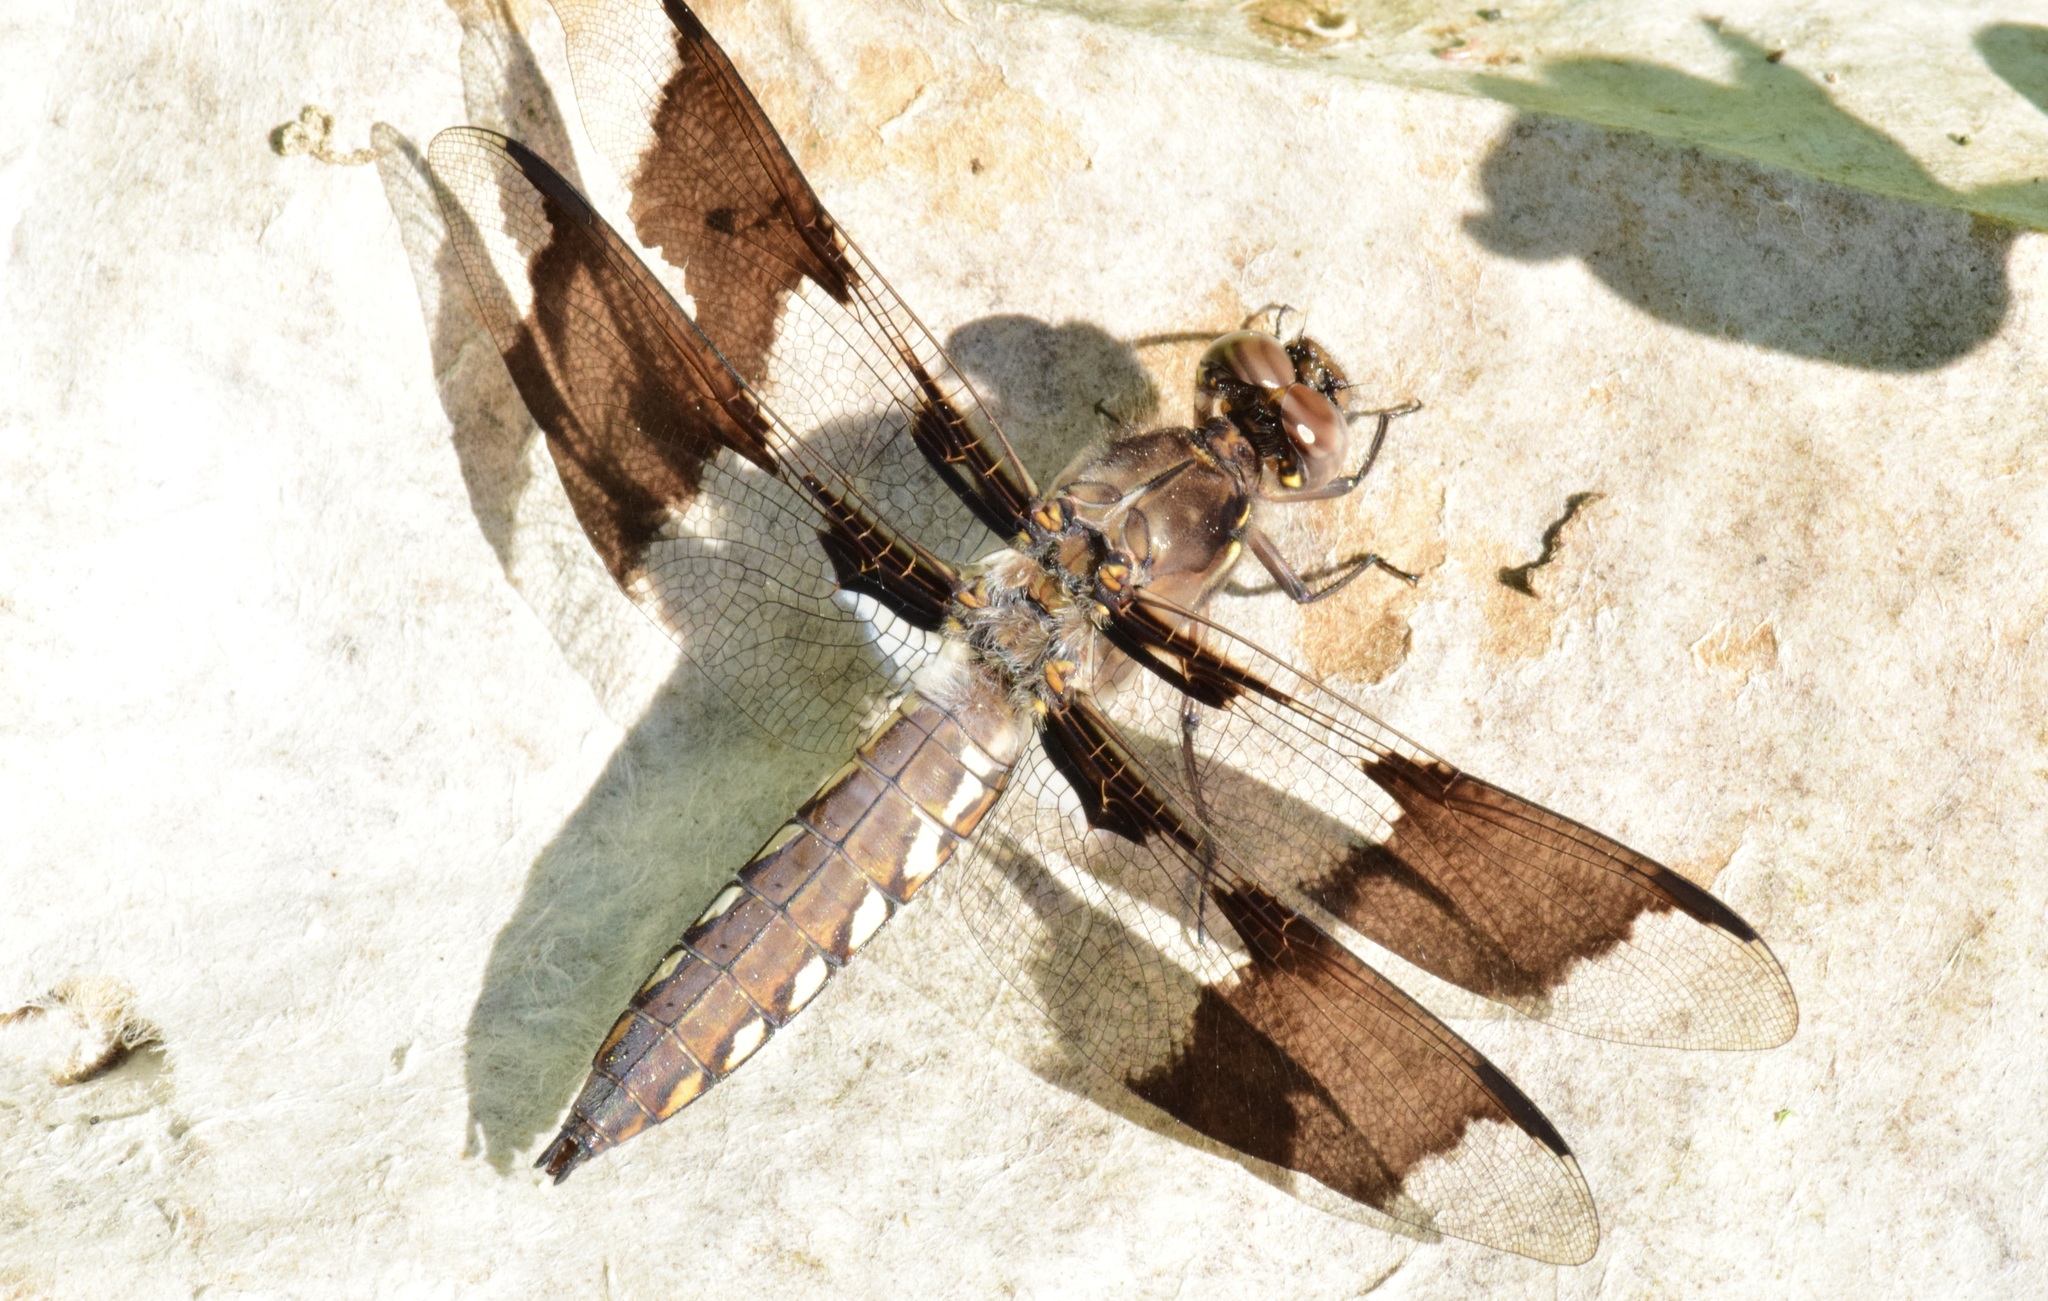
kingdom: Animalia
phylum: Arthropoda
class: Insecta
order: Odonata
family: Libellulidae
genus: Plathemis
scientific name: Plathemis lydia
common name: Common whitetail
